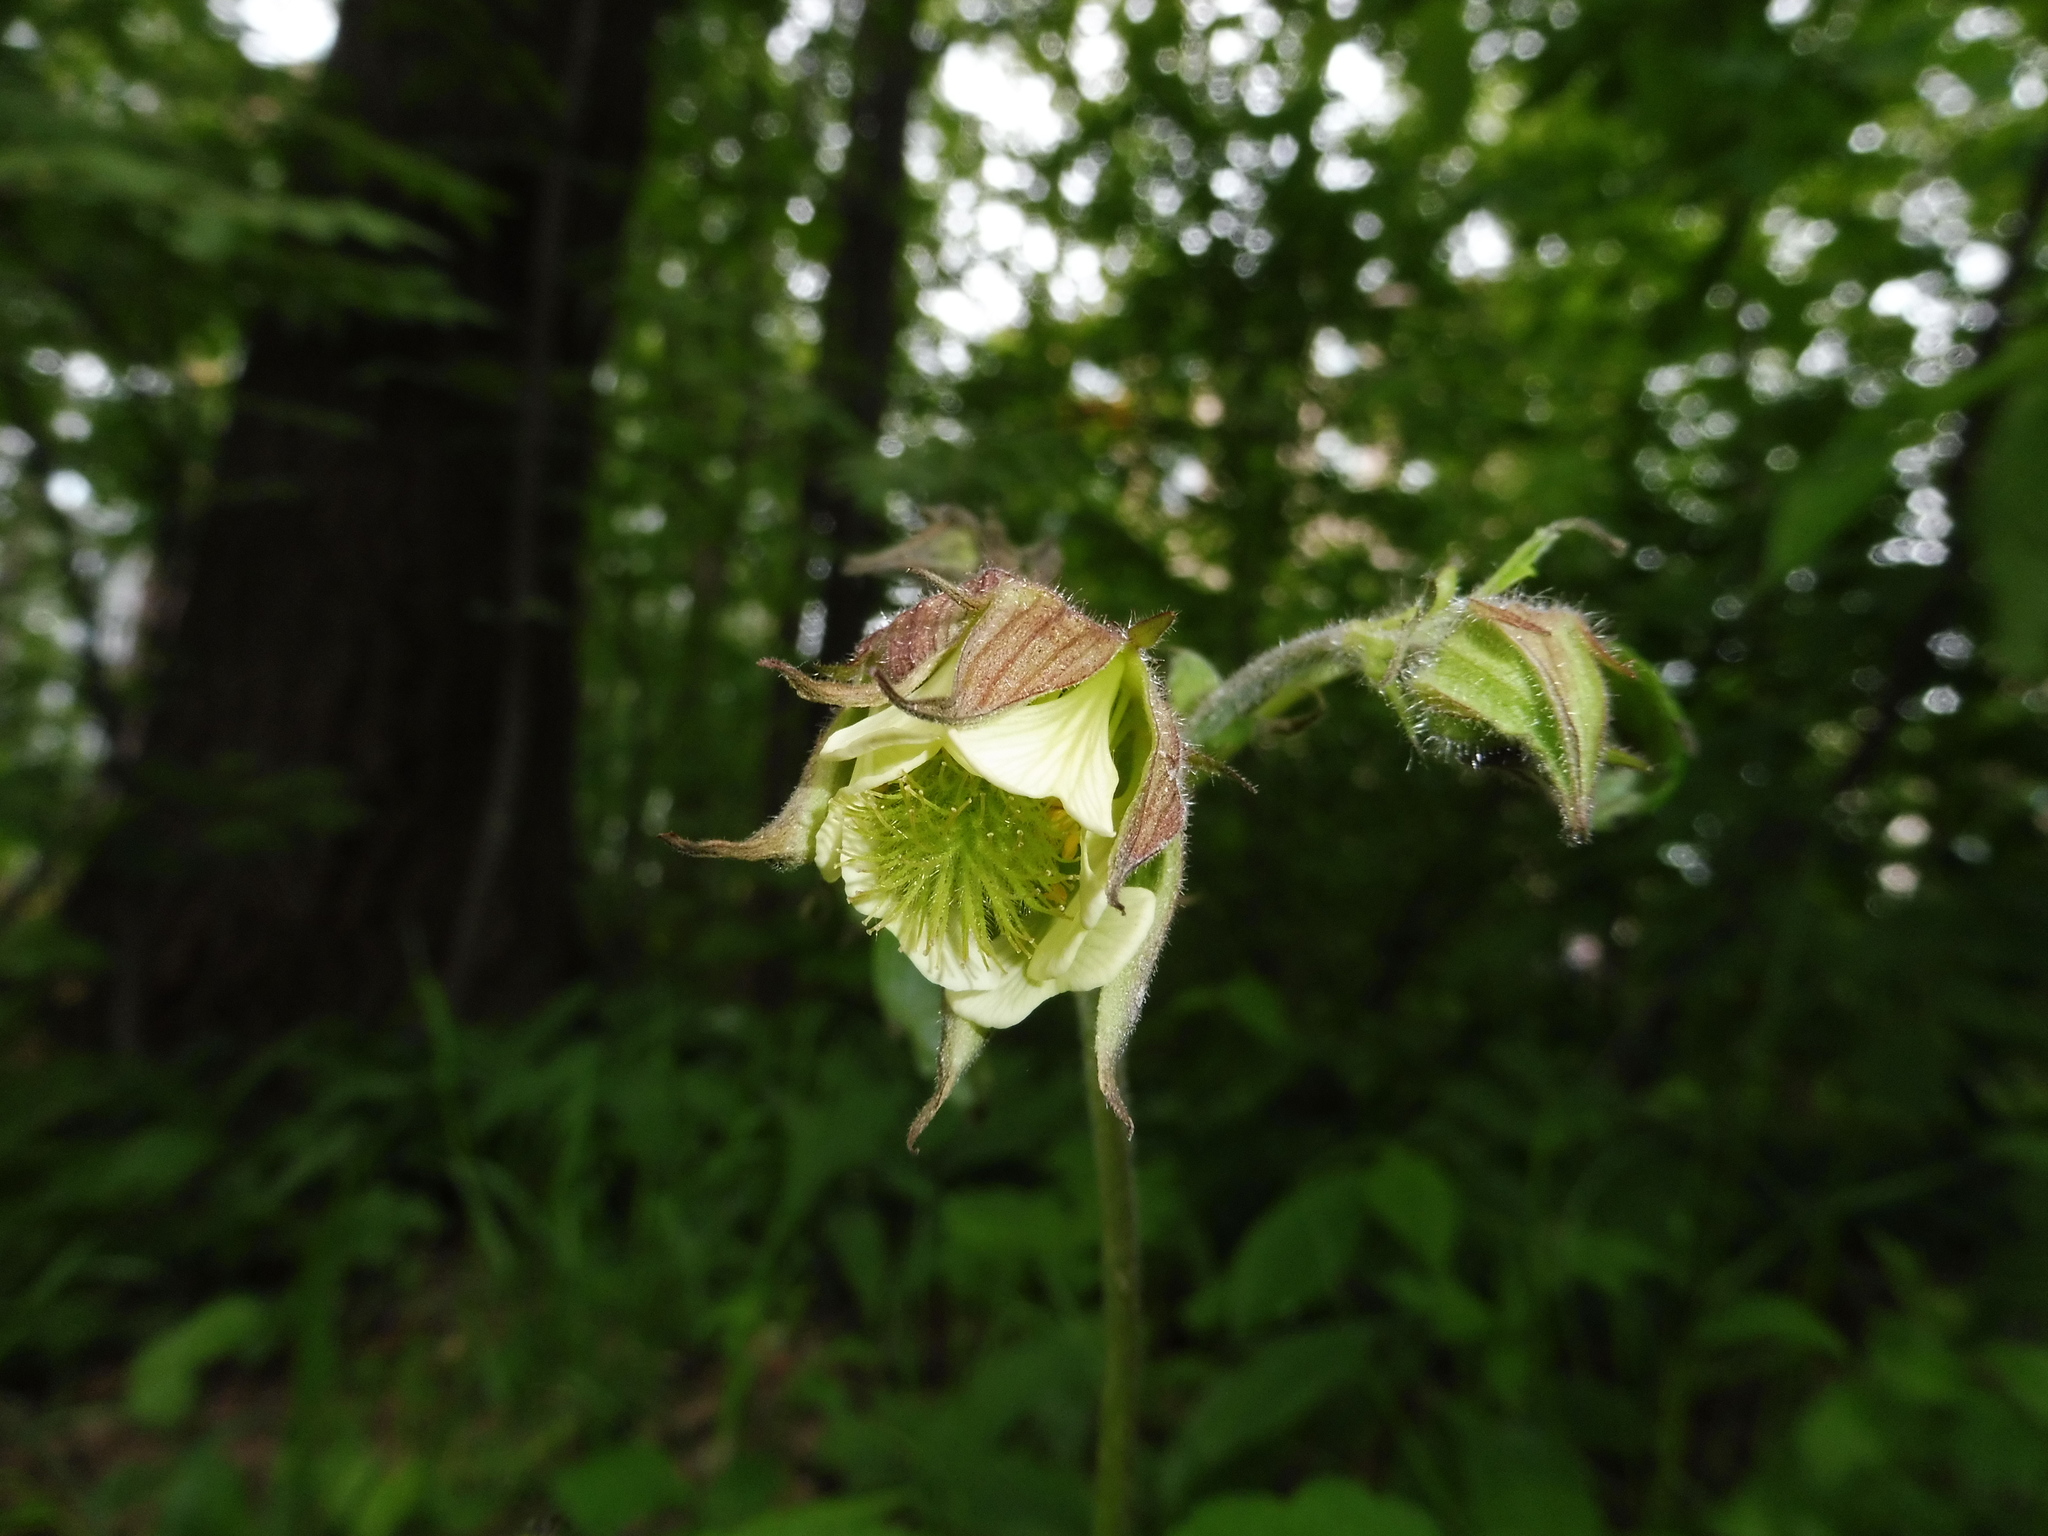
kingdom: Plantae
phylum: Tracheophyta
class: Magnoliopsida
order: Rosales
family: Rosaceae
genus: Geum
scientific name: Geum rivale
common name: Water avens
